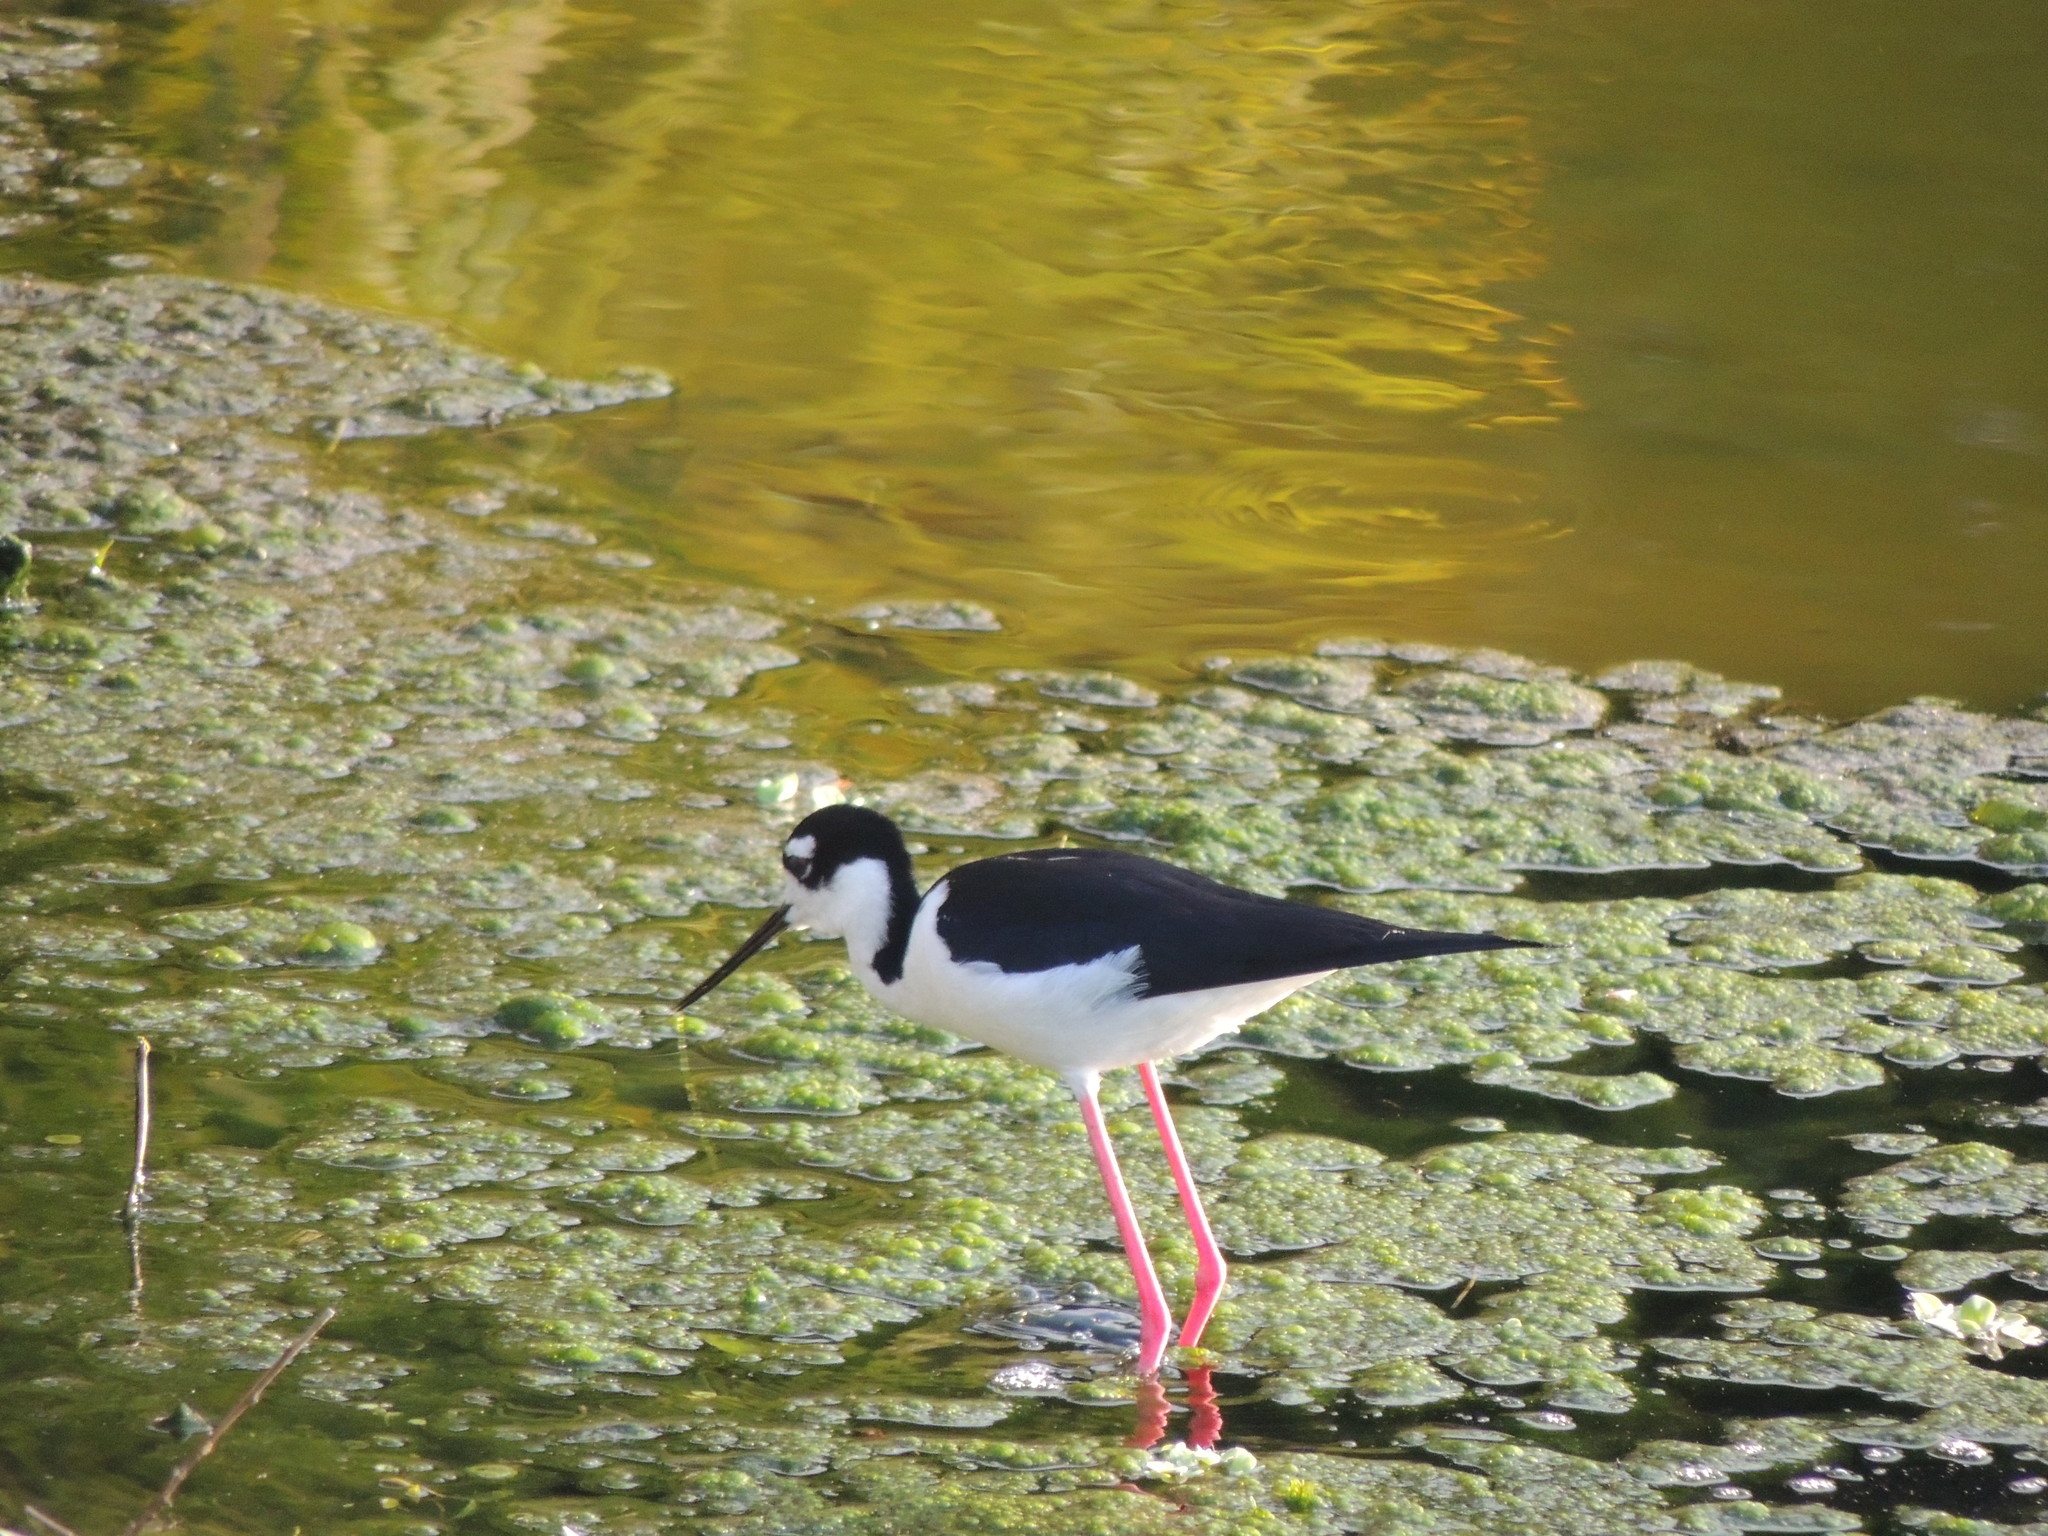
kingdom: Animalia
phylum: Chordata
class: Aves
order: Charadriiformes
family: Recurvirostridae
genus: Himantopus
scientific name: Himantopus mexicanus
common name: Black-necked stilt
